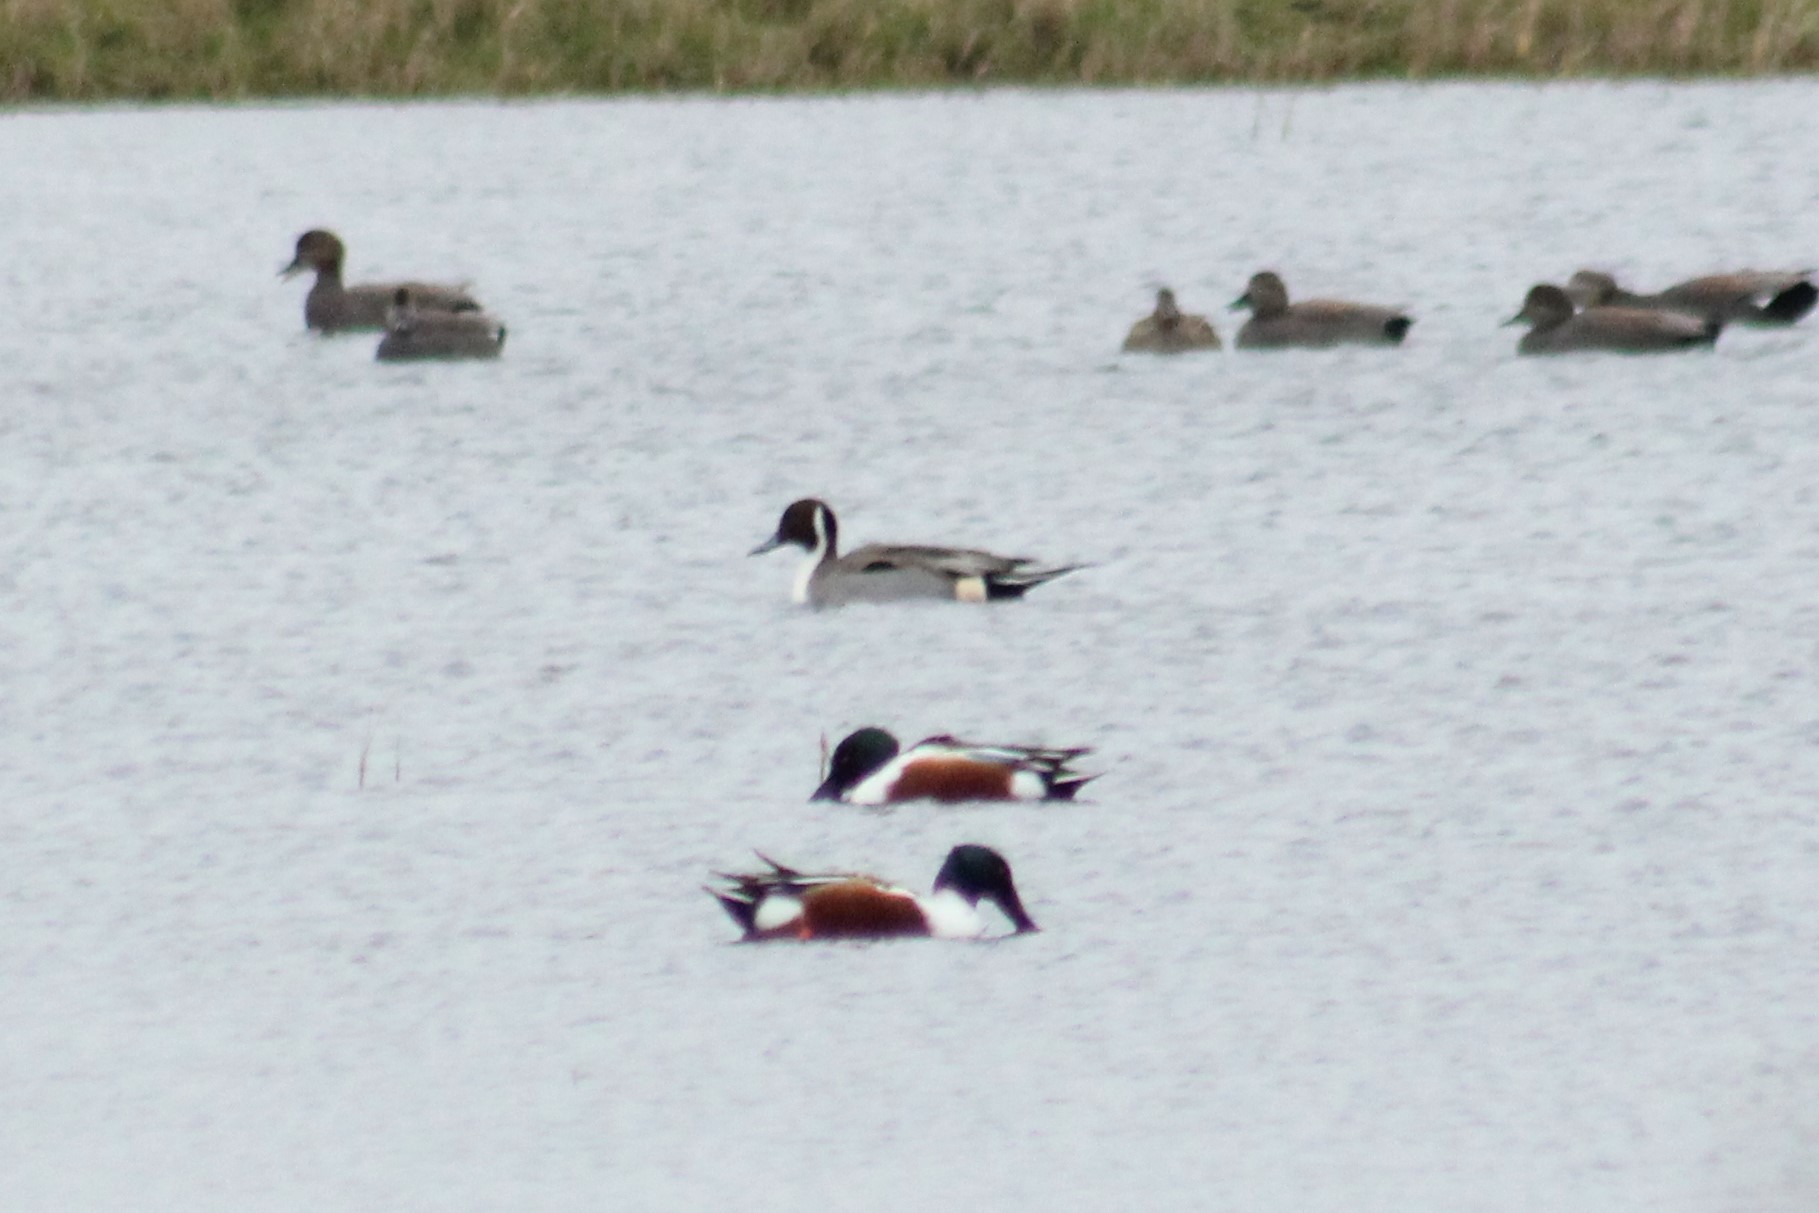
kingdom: Animalia
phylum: Chordata
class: Aves
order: Anseriformes
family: Anatidae
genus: Anas
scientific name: Anas acuta
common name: Northern pintail
